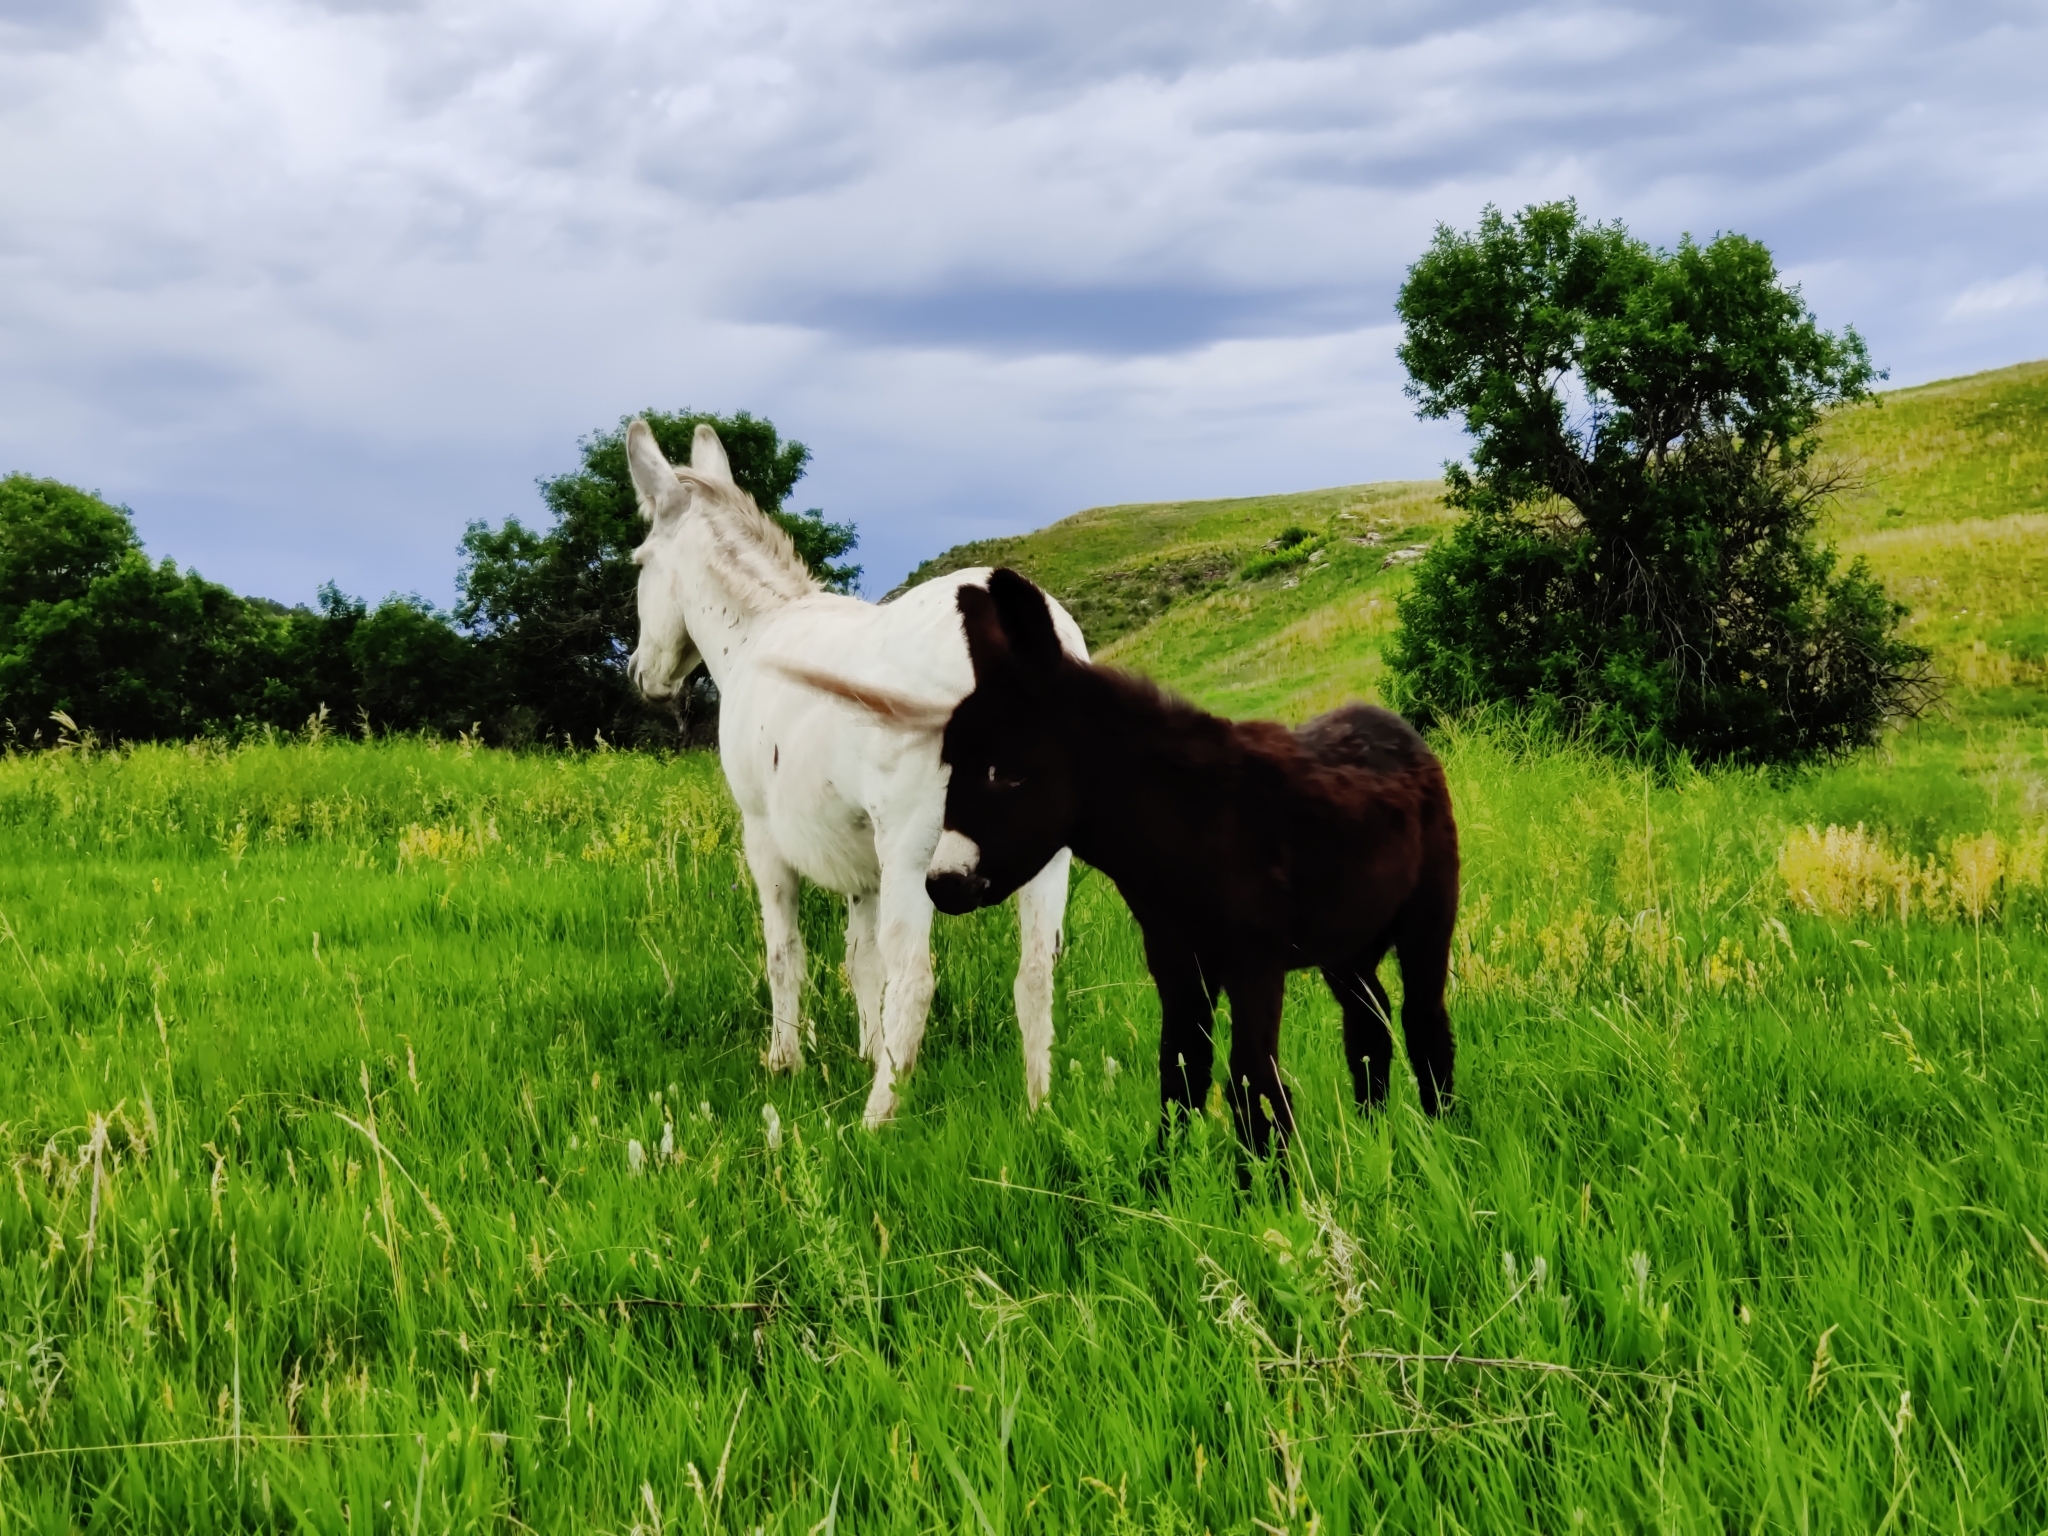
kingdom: Animalia
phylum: Chordata
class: Mammalia
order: Perissodactyla
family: Equidae
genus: Equus
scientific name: Equus asinus
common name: Ass
